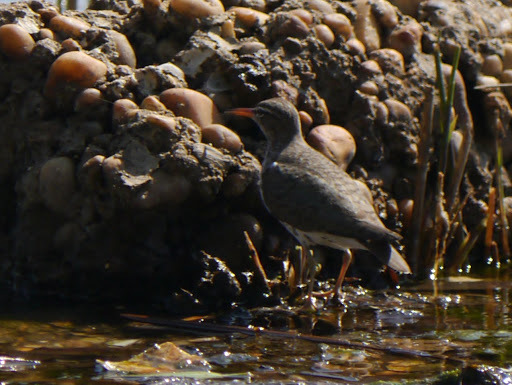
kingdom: Animalia
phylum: Chordata
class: Aves
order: Charadriiformes
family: Scolopacidae
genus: Actitis
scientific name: Actitis macularius
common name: Spotted sandpiper
